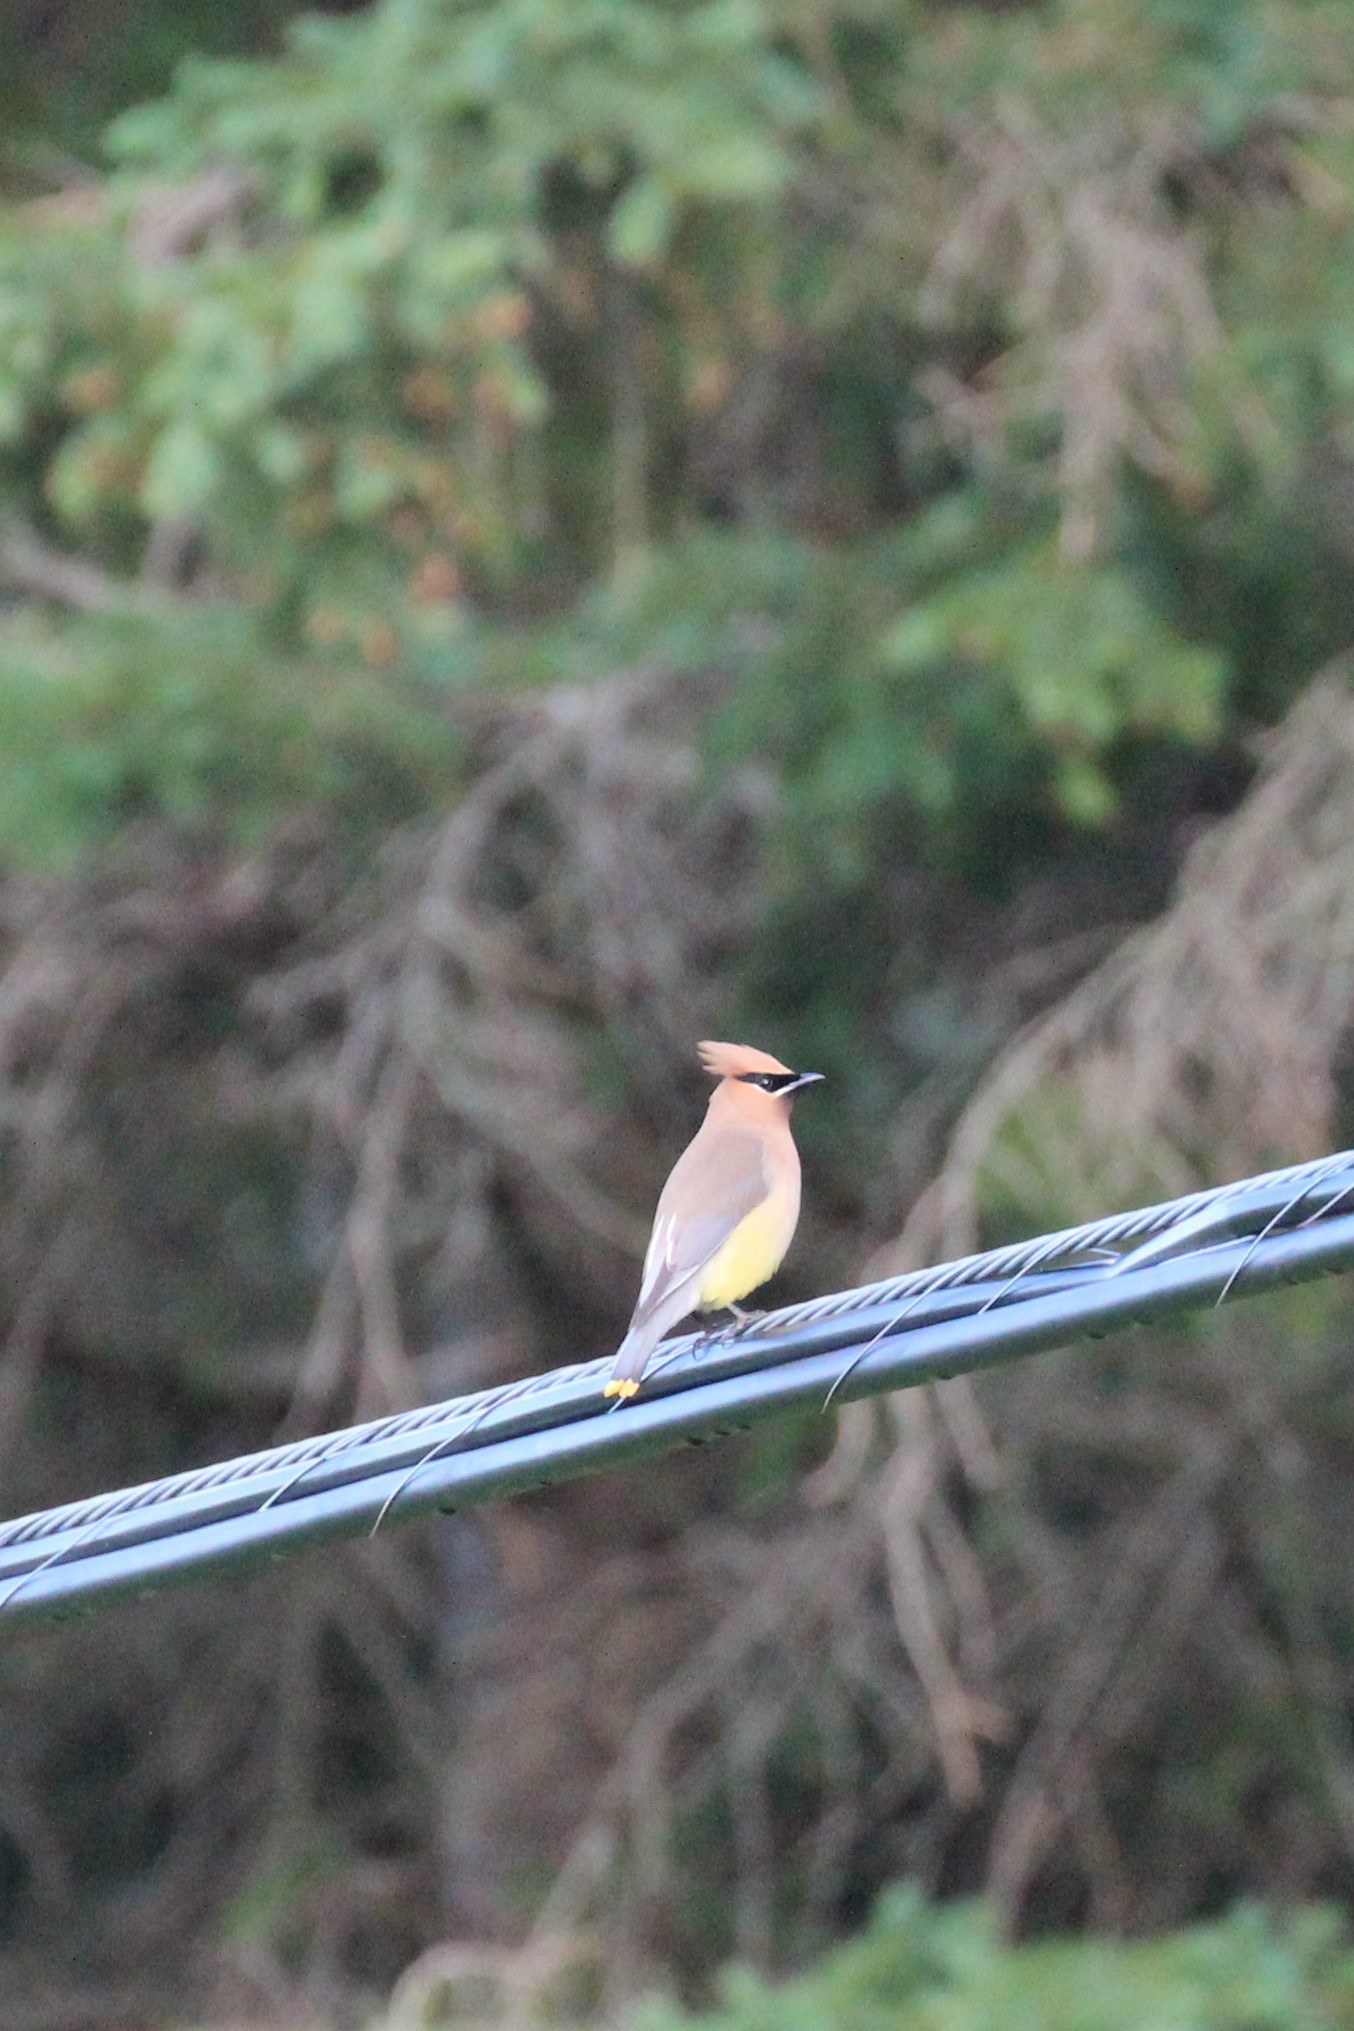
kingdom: Animalia
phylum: Chordata
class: Aves
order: Passeriformes
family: Bombycillidae
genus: Bombycilla
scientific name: Bombycilla cedrorum
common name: Cedar waxwing
